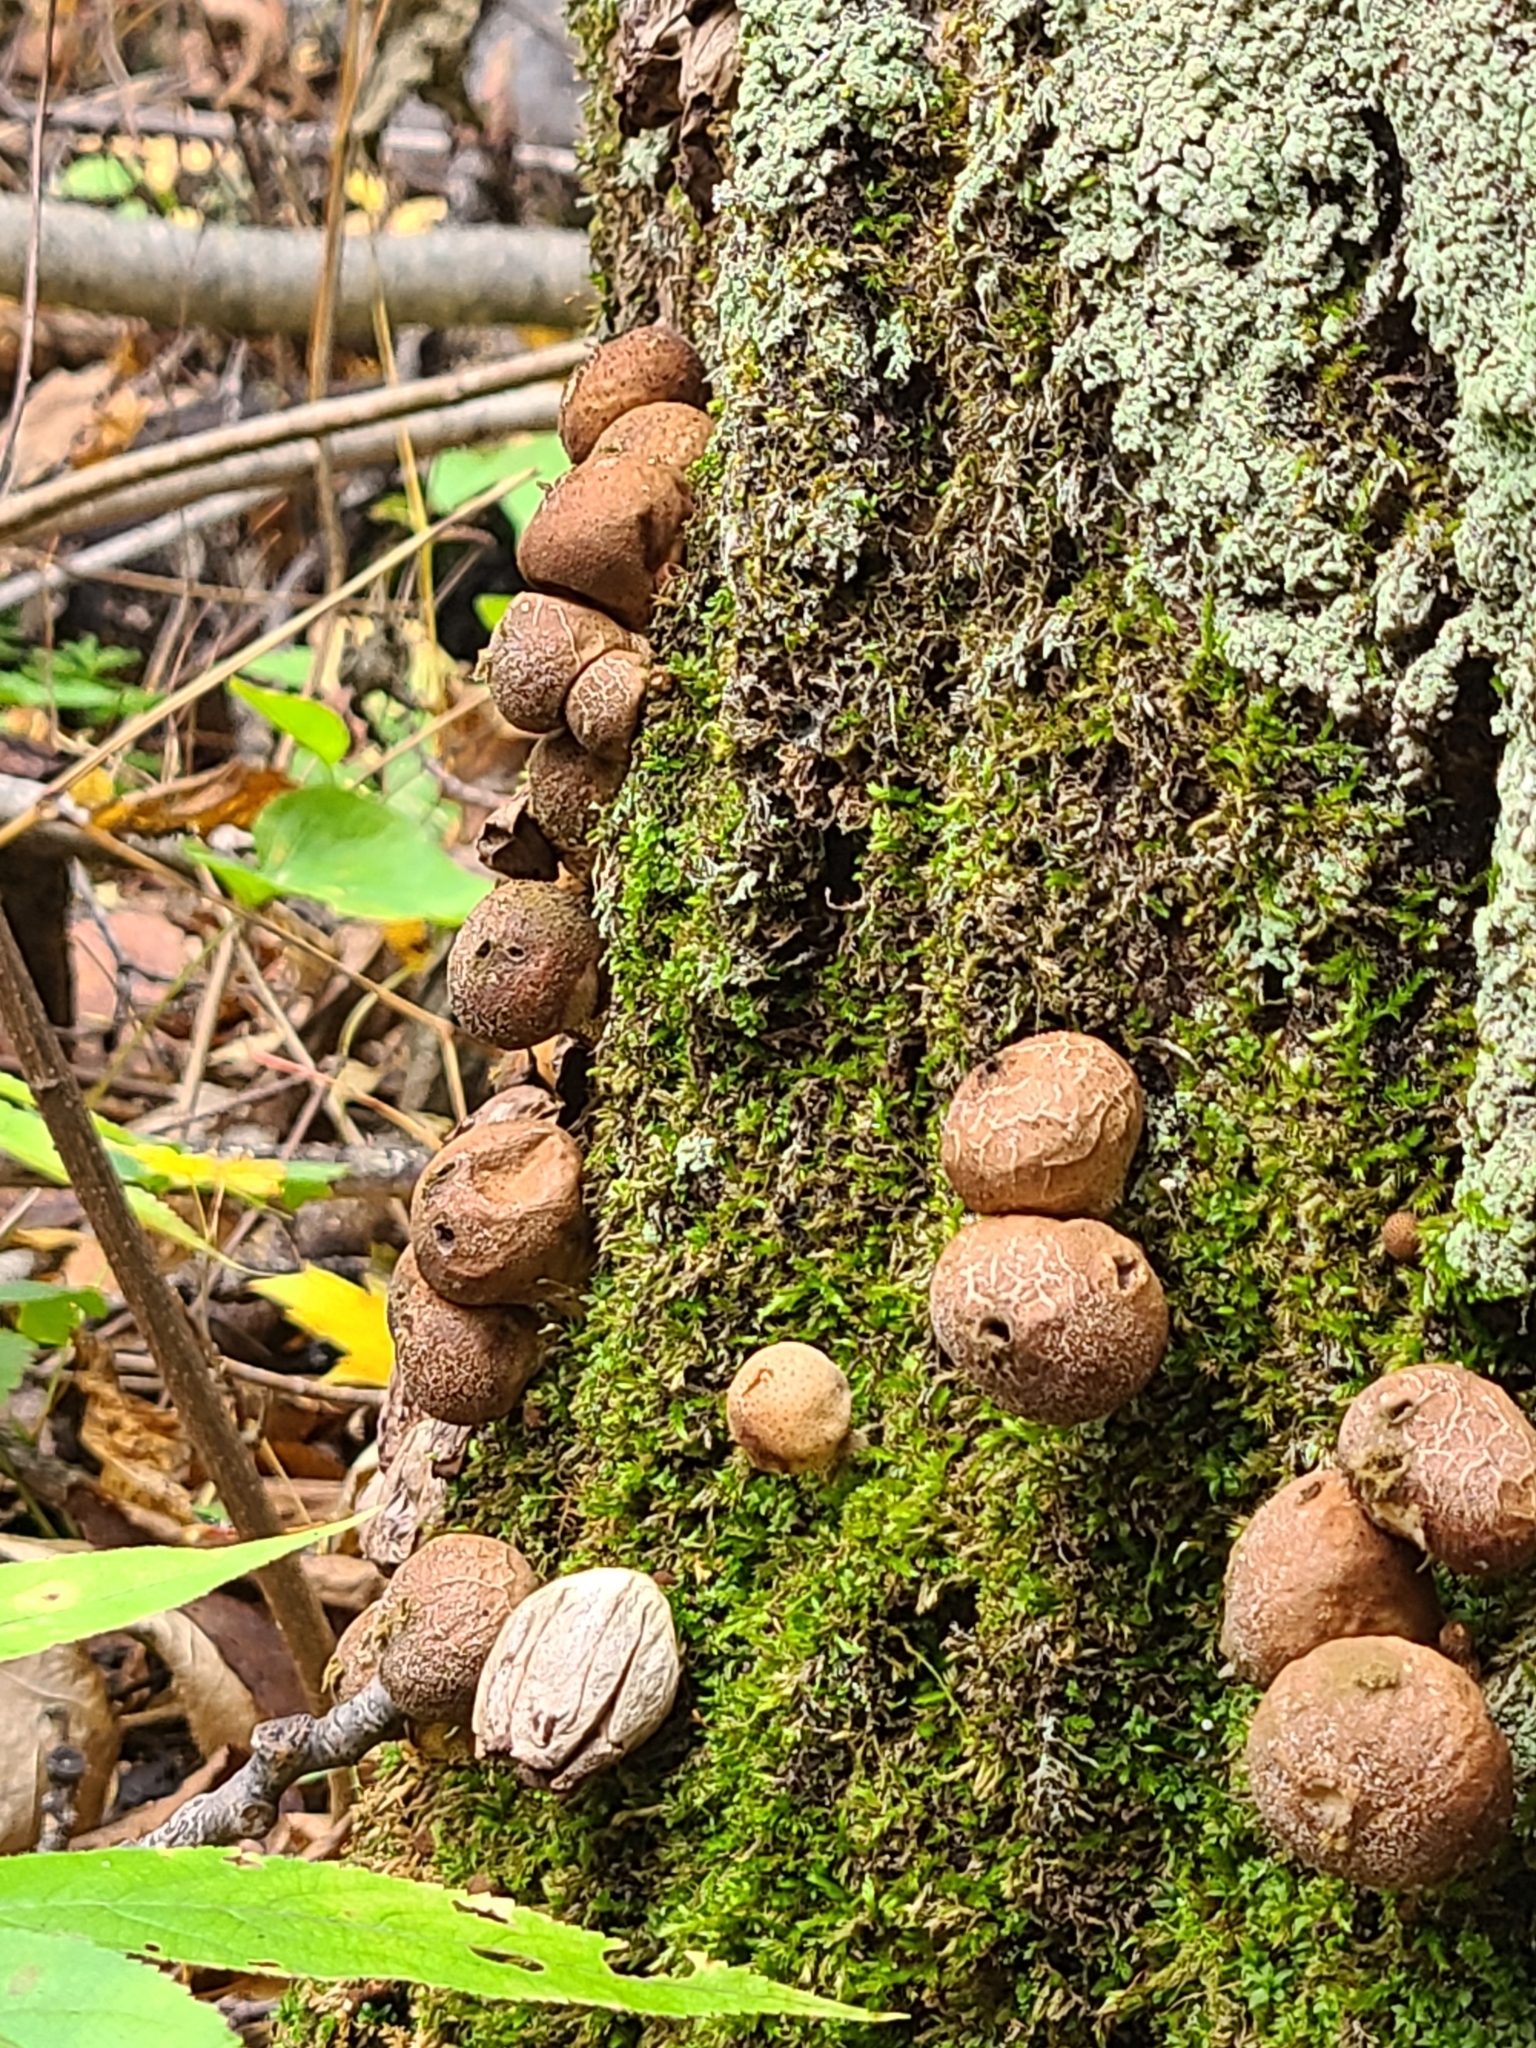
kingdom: Fungi
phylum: Basidiomycota
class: Agaricomycetes
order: Agaricales
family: Lycoperdaceae
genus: Apioperdon
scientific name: Apioperdon pyriforme
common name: Pear-shaped puffball
